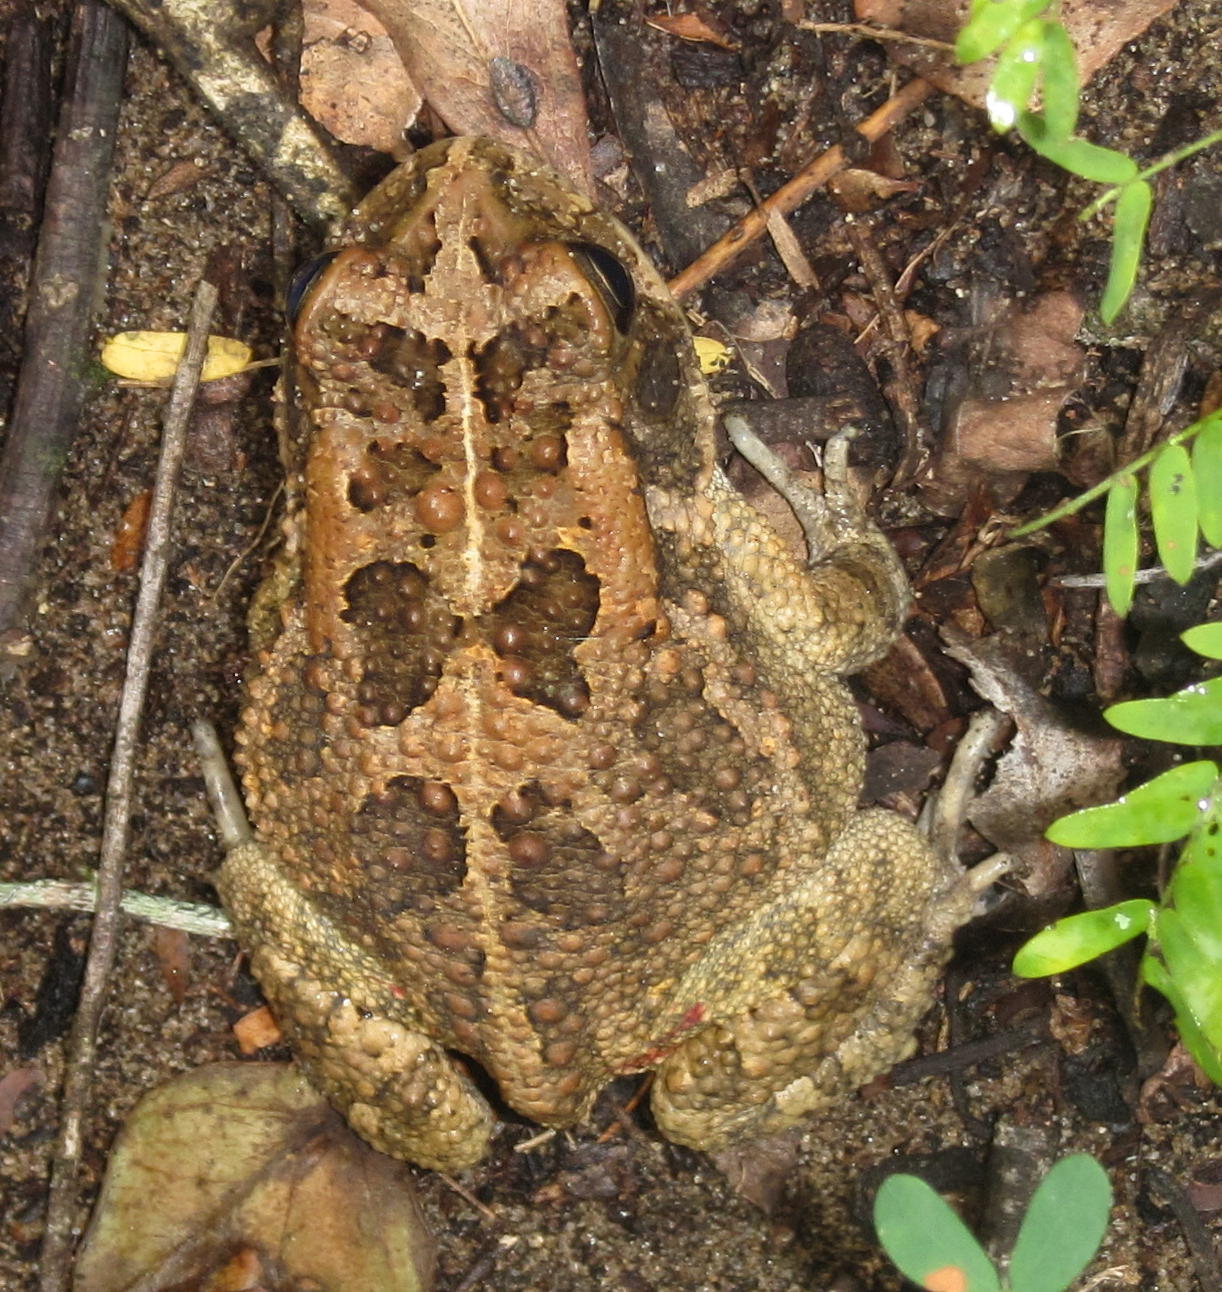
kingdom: Animalia
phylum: Chordata
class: Amphibia
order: Anura
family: Bufonidae
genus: Sclerophrys
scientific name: Sclerophrys gutturalis
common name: African common toad
